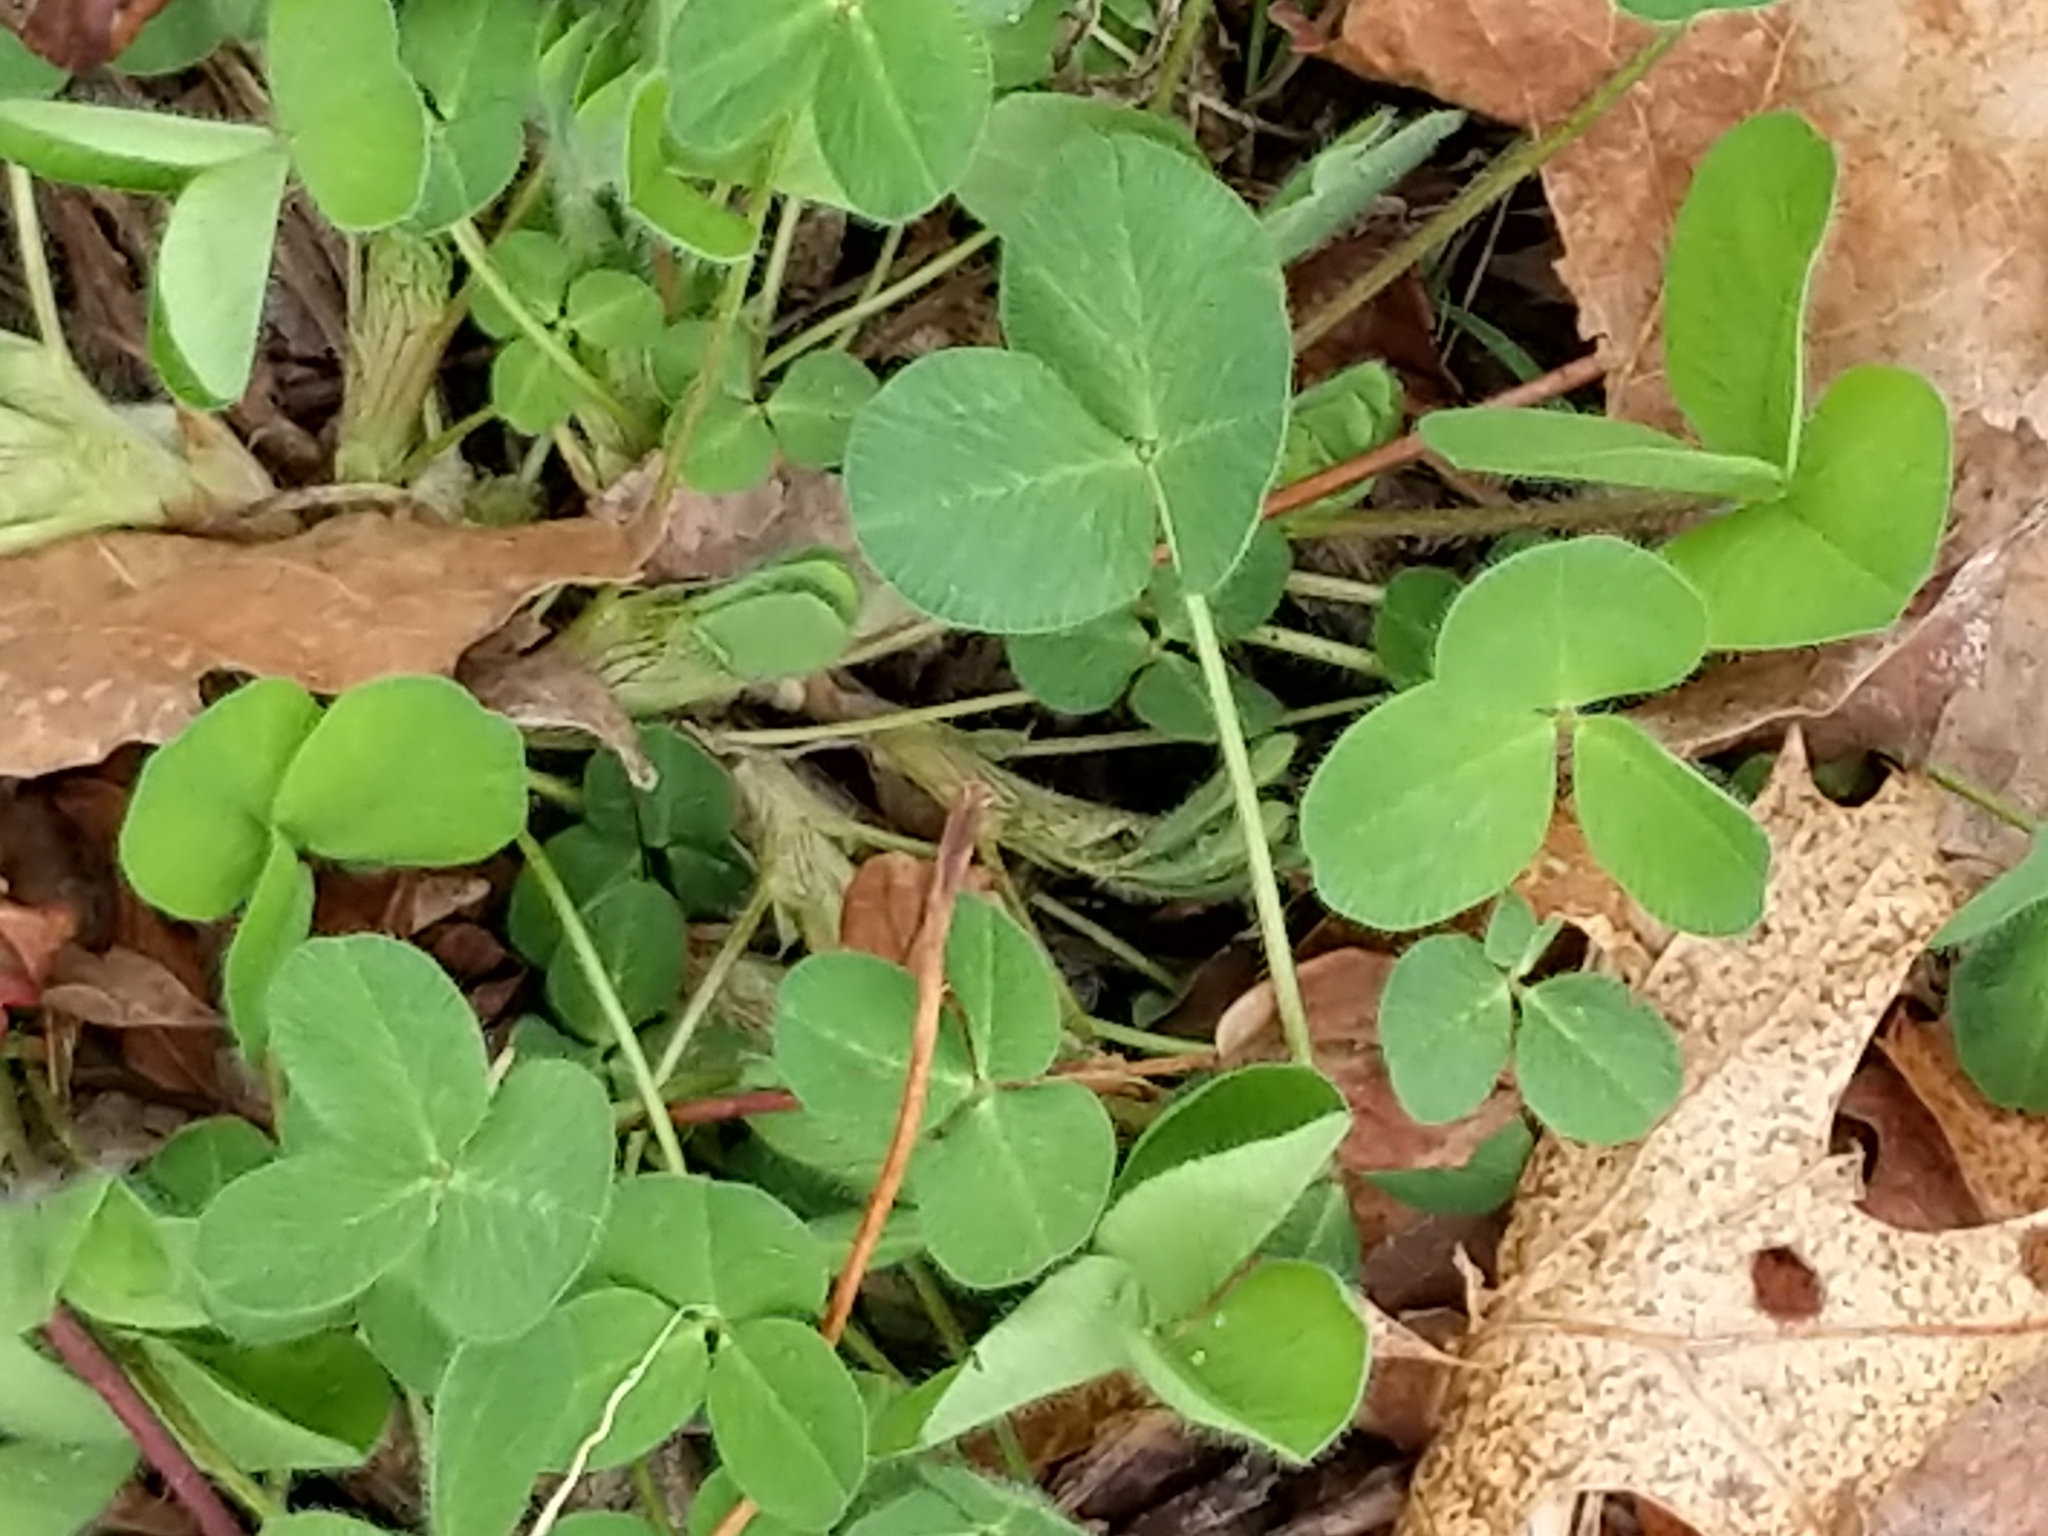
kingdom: Plantae
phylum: Tracheophyta
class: Magnoliopsida
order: Fabales
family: Fabaceae
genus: Trifolium
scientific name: Trifolium pratense
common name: Red clover
